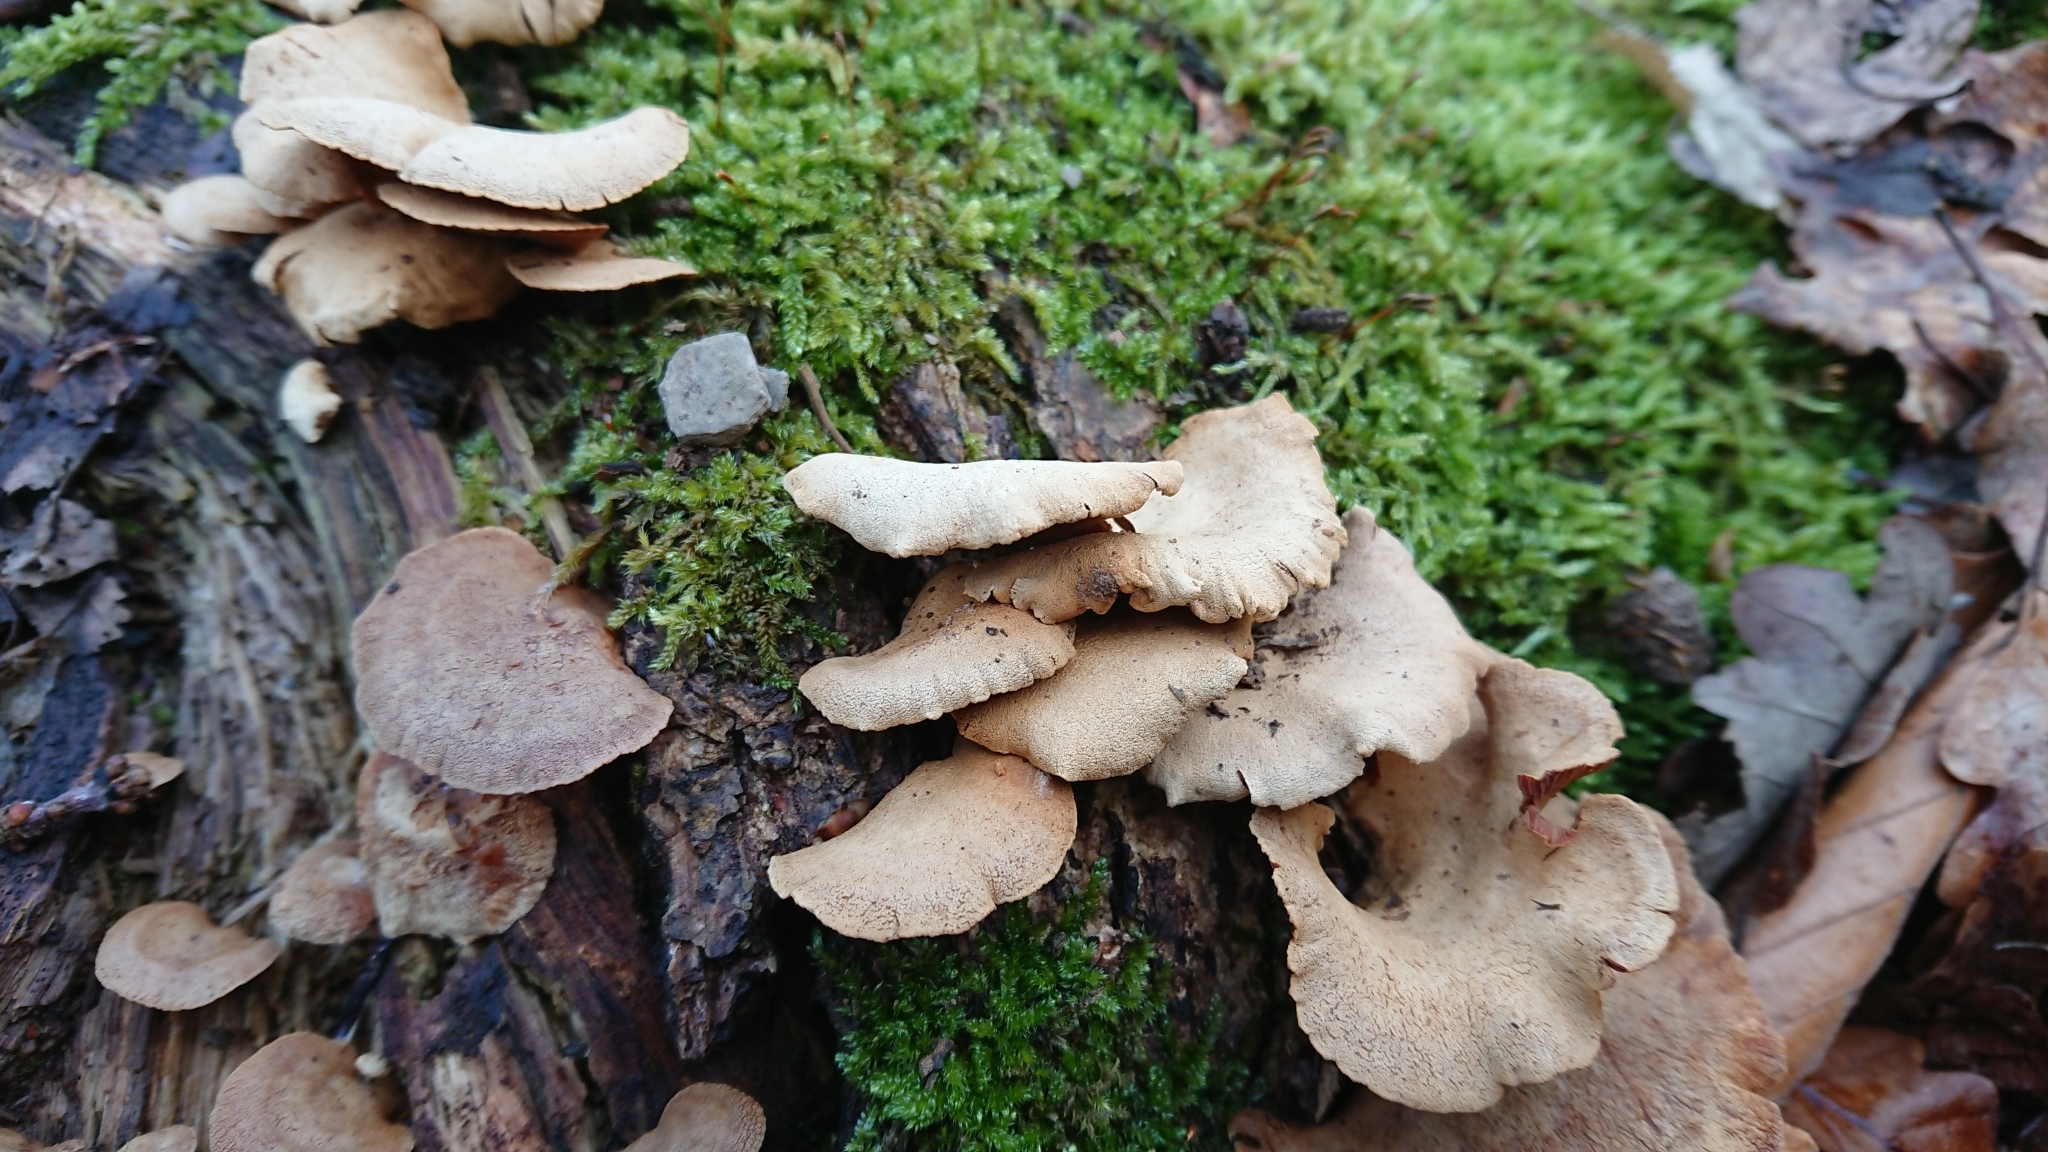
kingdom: Fungi
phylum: Basidiomycota
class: Agaricomycetes
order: Agaricales
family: Mycenaceae
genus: Panellus
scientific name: Panellus stipticus
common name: Bitter oysterling
